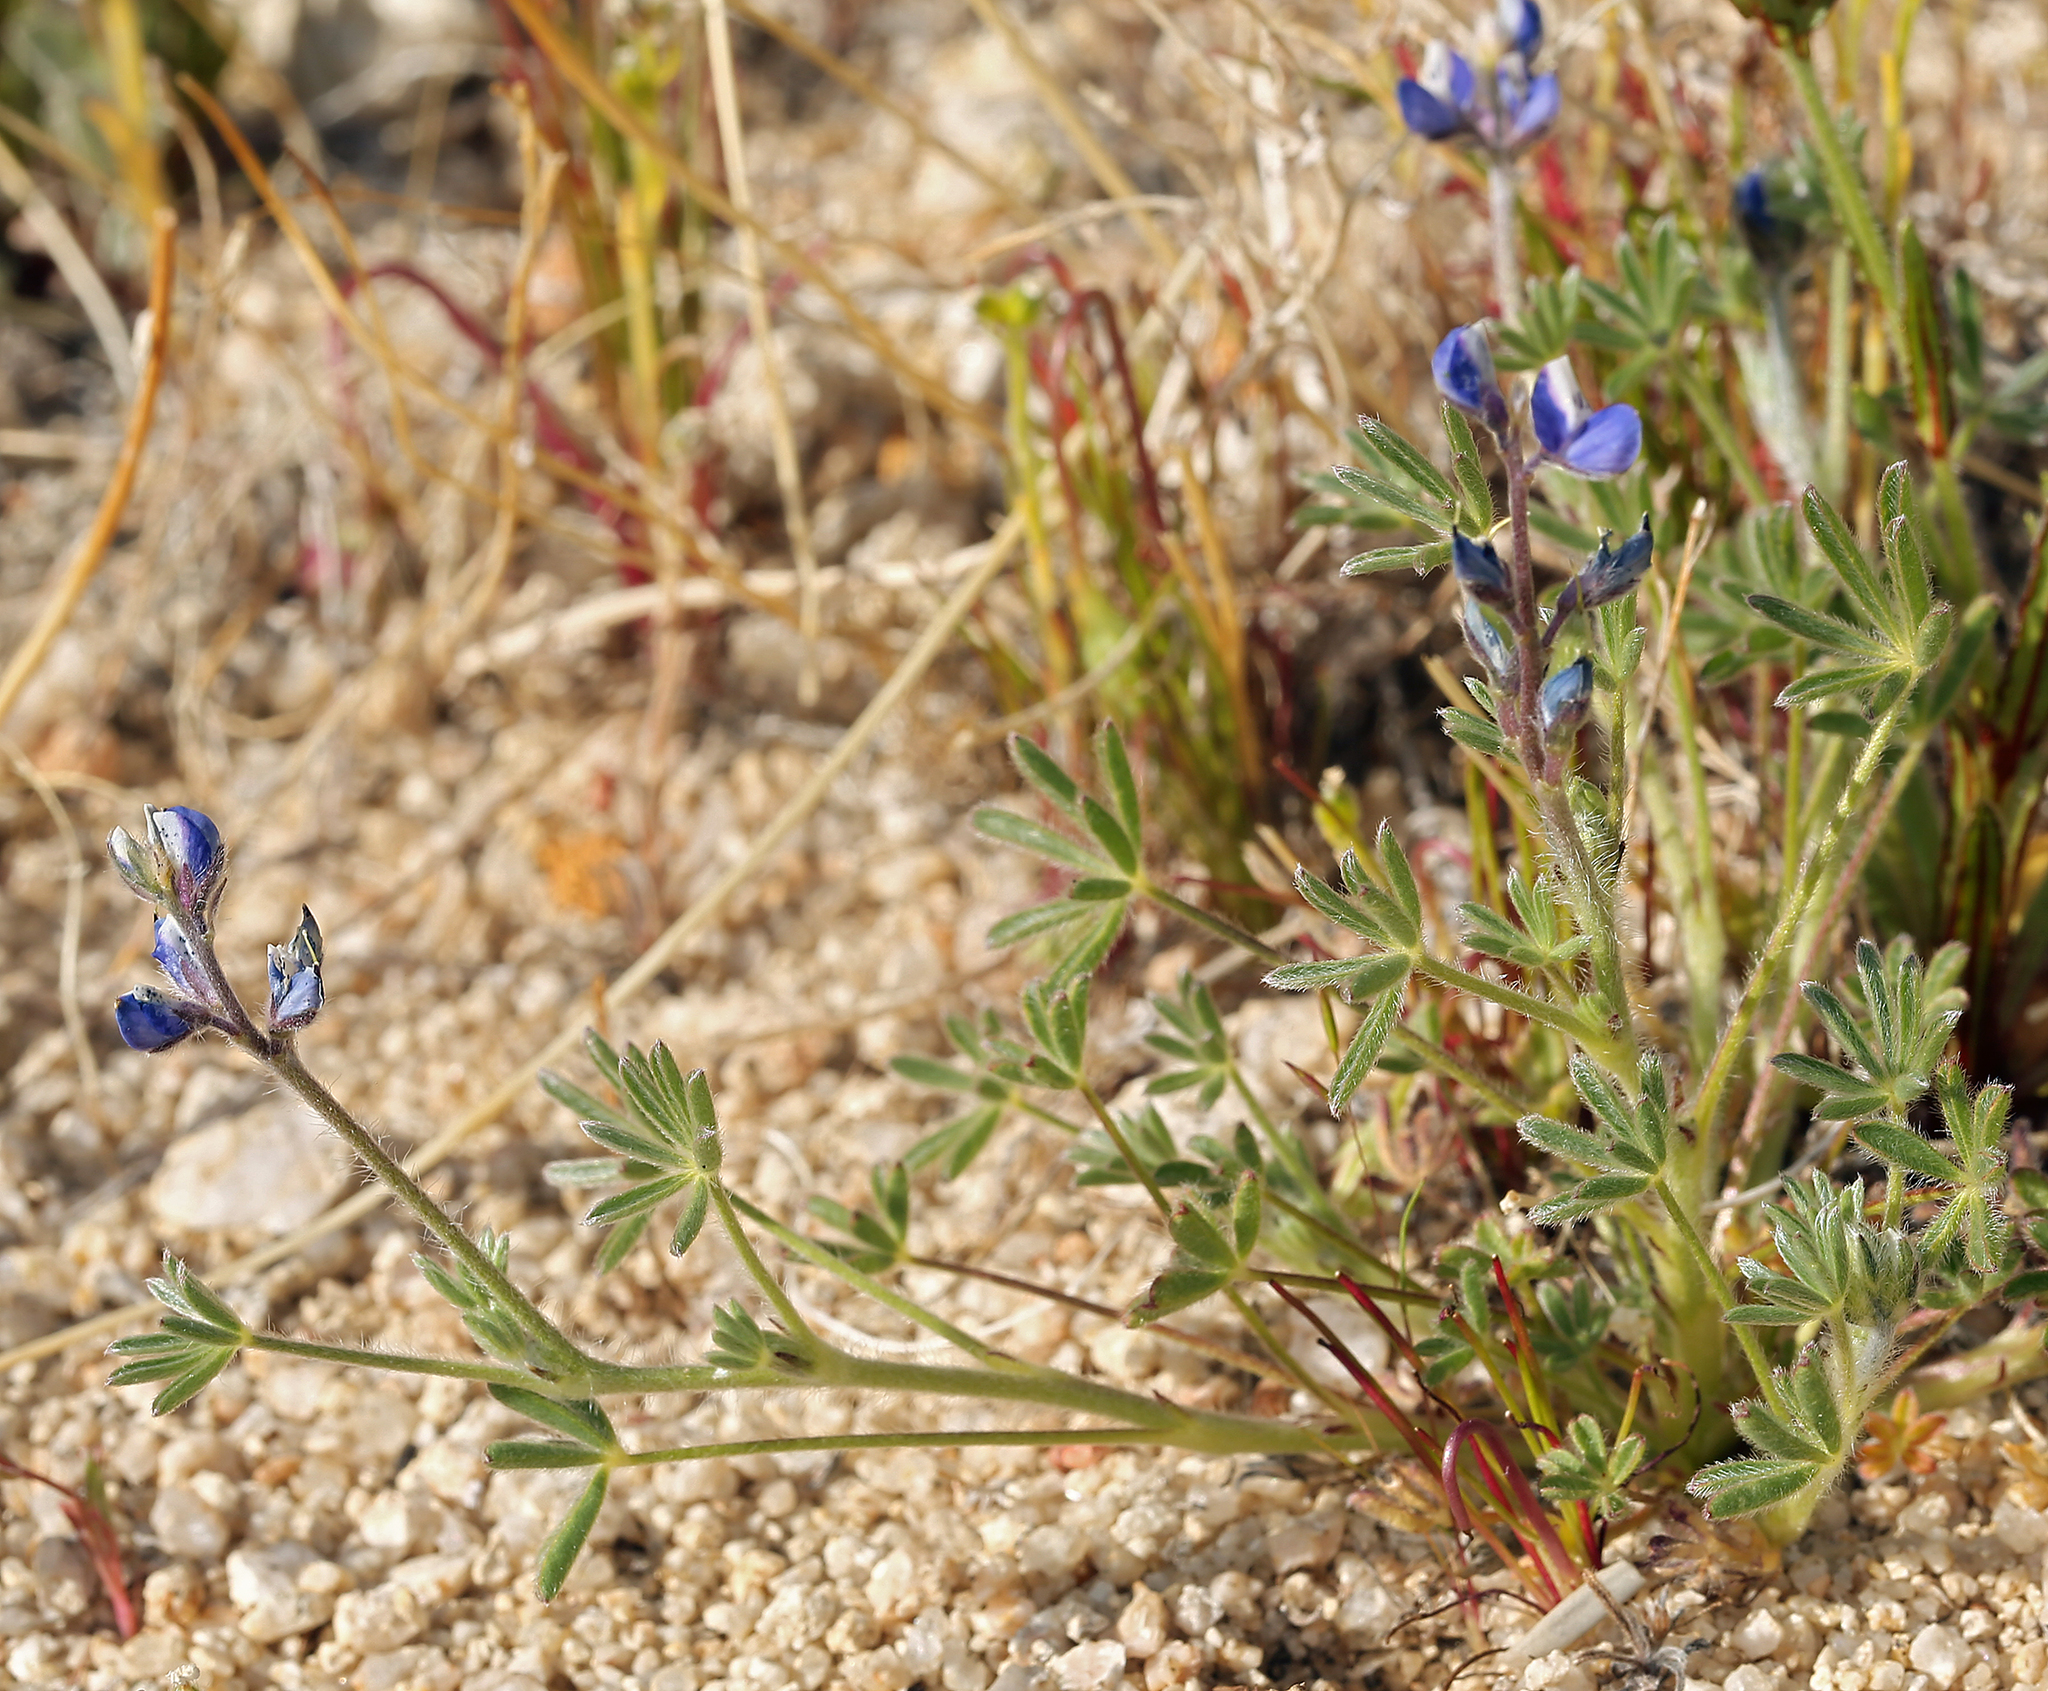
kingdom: Plantae
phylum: Tracheophyta
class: Magnoliopsida
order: Fabales
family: Fabaceae
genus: Lupinus
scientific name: Lupinus bicolor
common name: Miniature lupine
